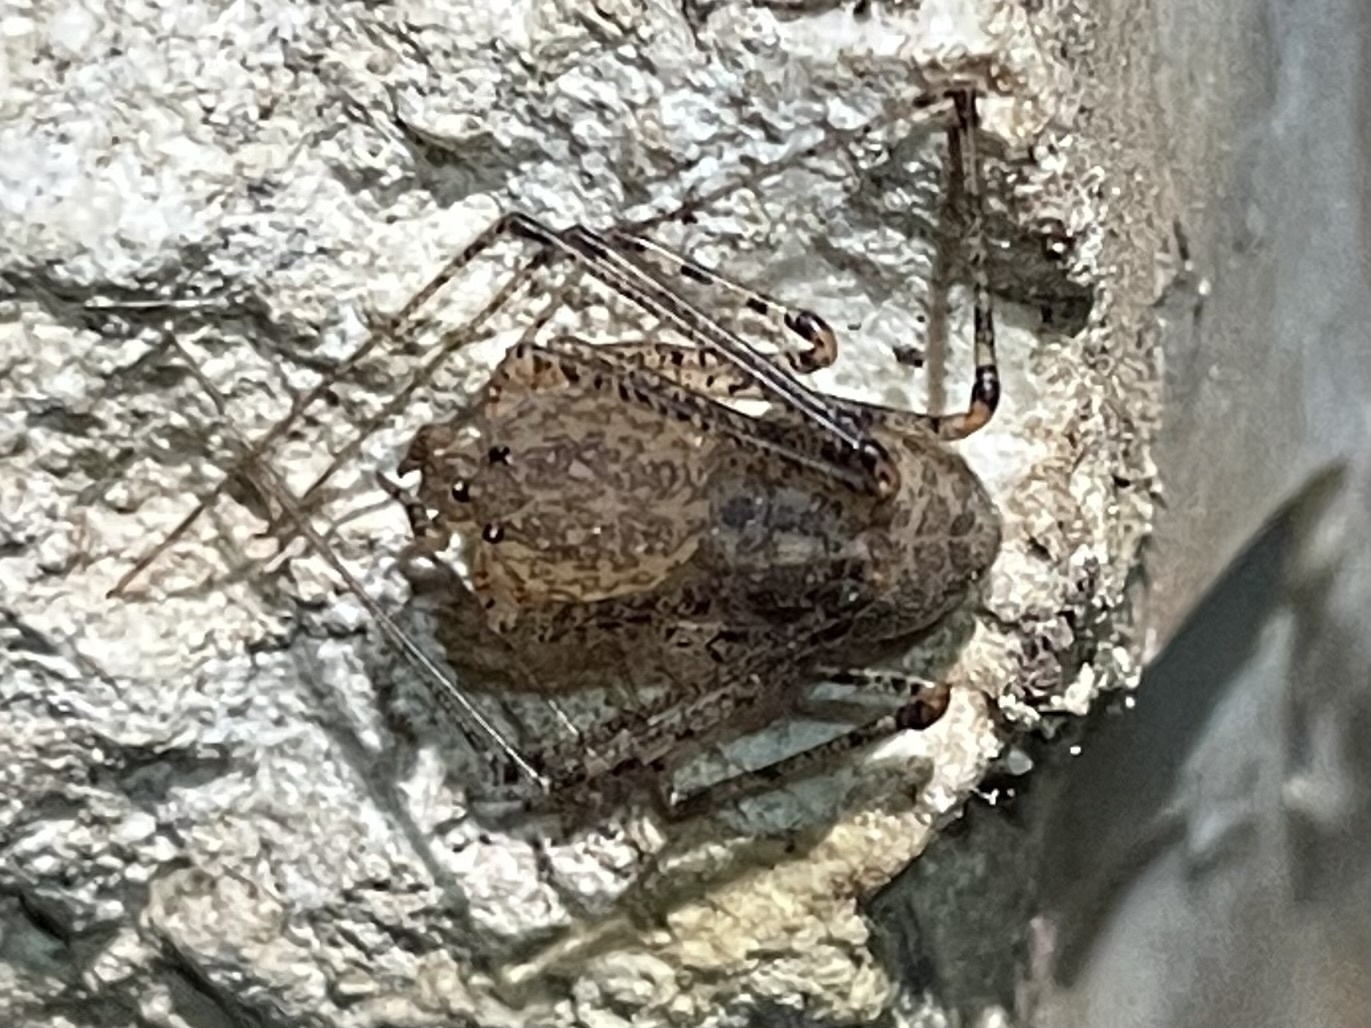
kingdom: Animalia
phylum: Arthropoda
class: Arachnida
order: Araneae
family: Scytodidae
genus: Scytodes
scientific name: Scytodes atlacoya
